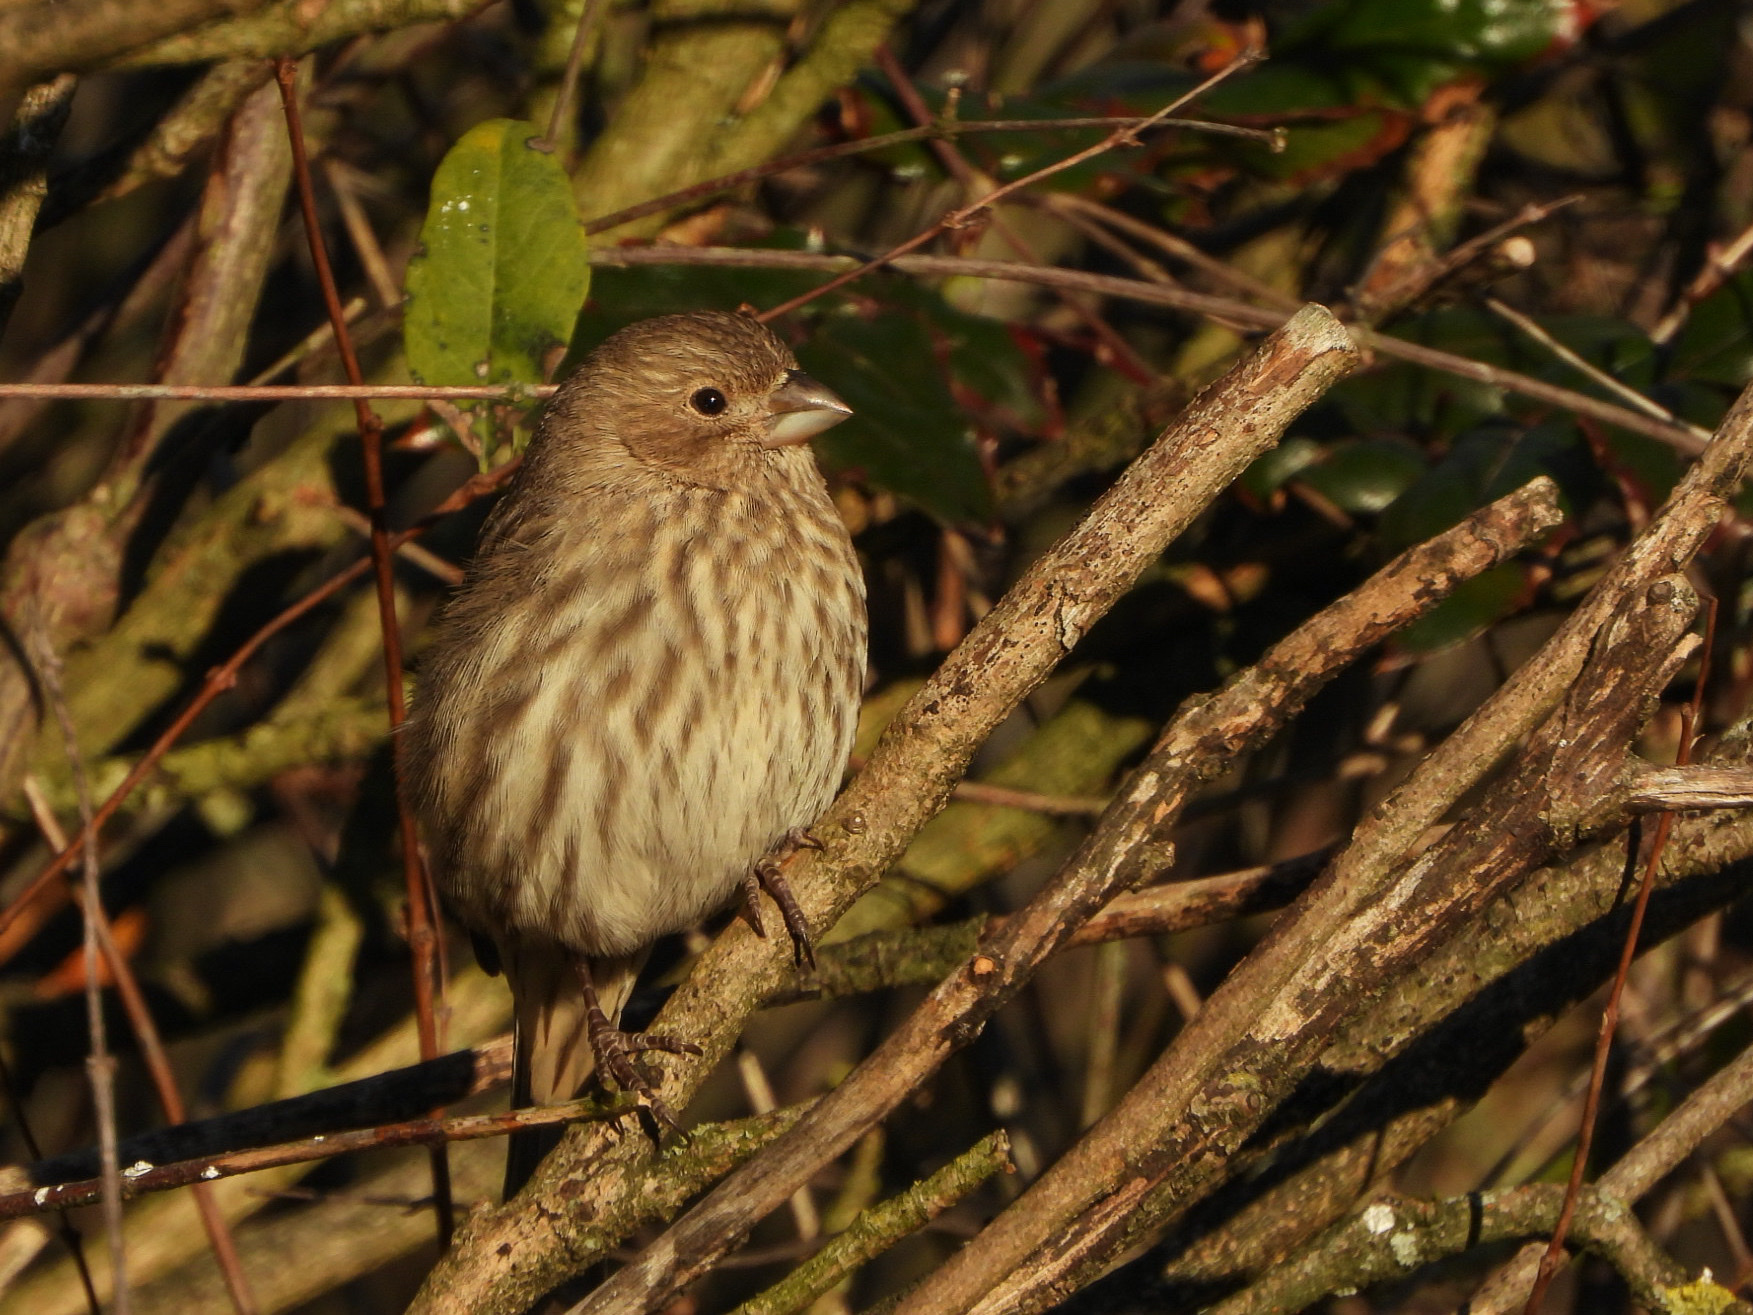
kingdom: Animalia
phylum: Chordata
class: Aves
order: Passeriformes
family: Fringillidae
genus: Haemorhous
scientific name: Haemorhous mexicanus
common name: House finch
